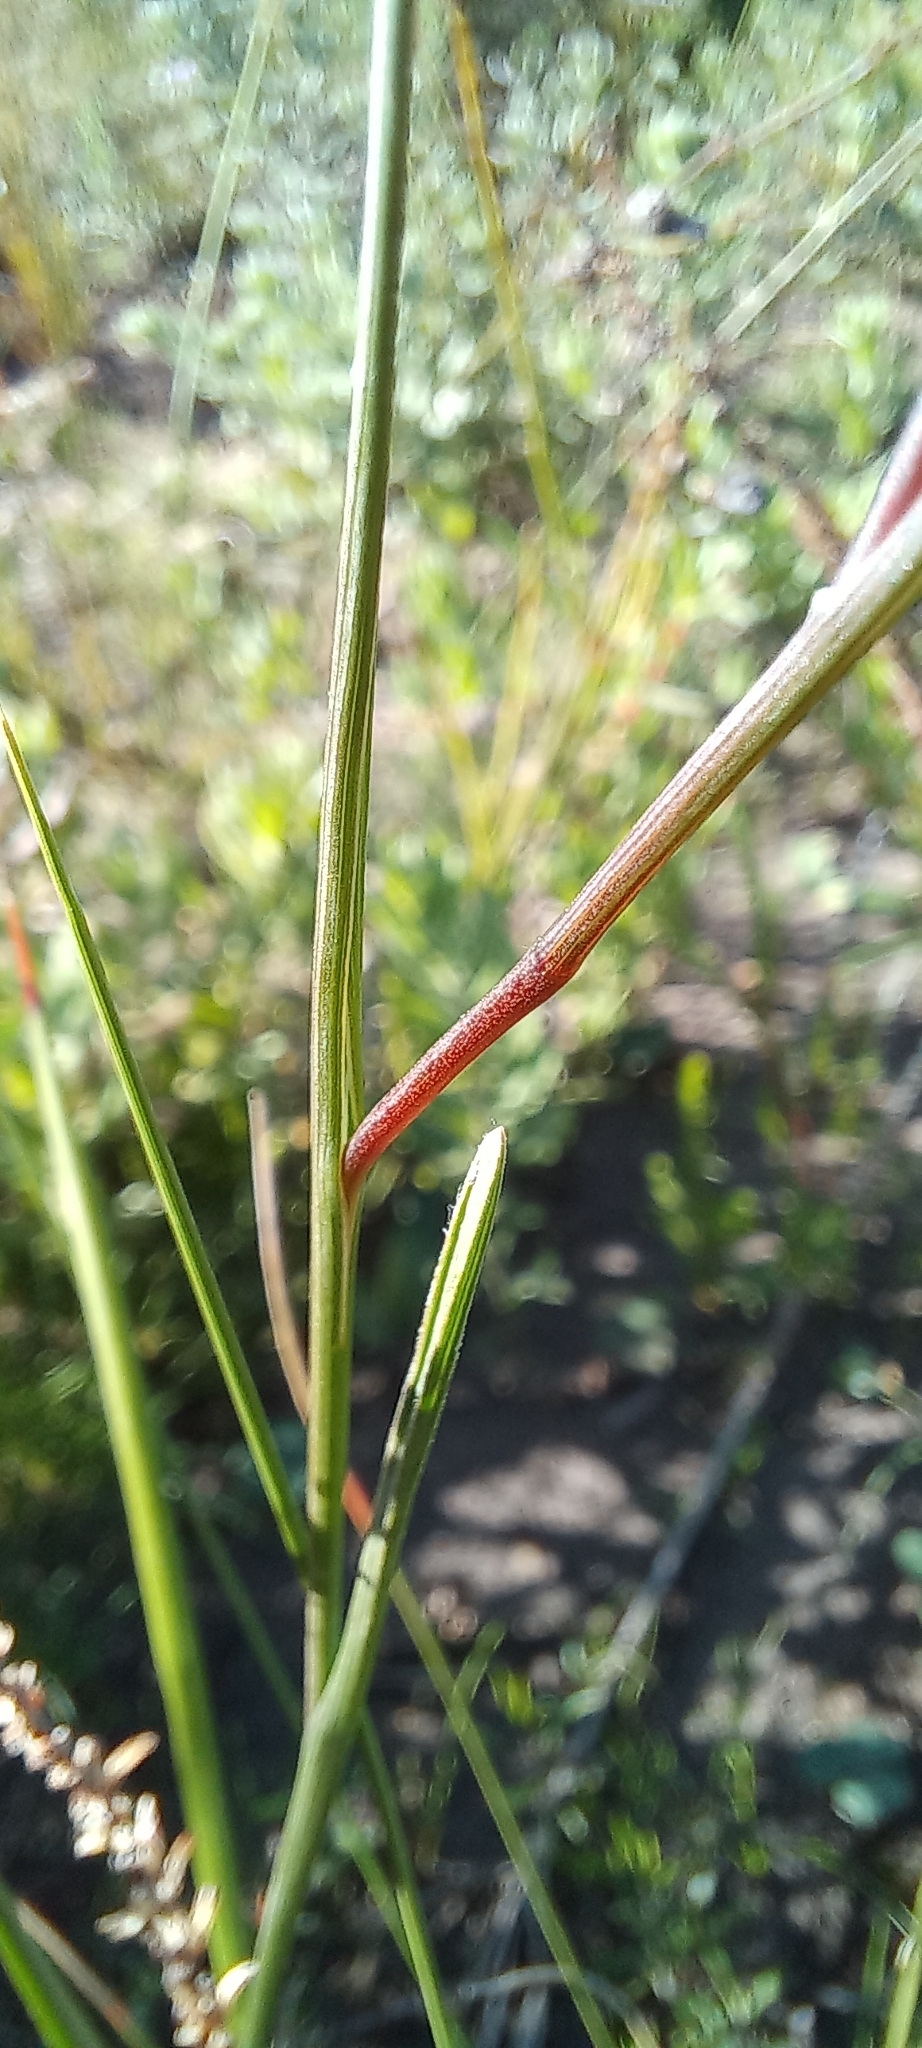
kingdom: Plantae
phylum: Tracheophyta
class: Liliopsida
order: Asparagales
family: Iridaceae
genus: Gladiolus
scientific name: Gladiolus gracilis
